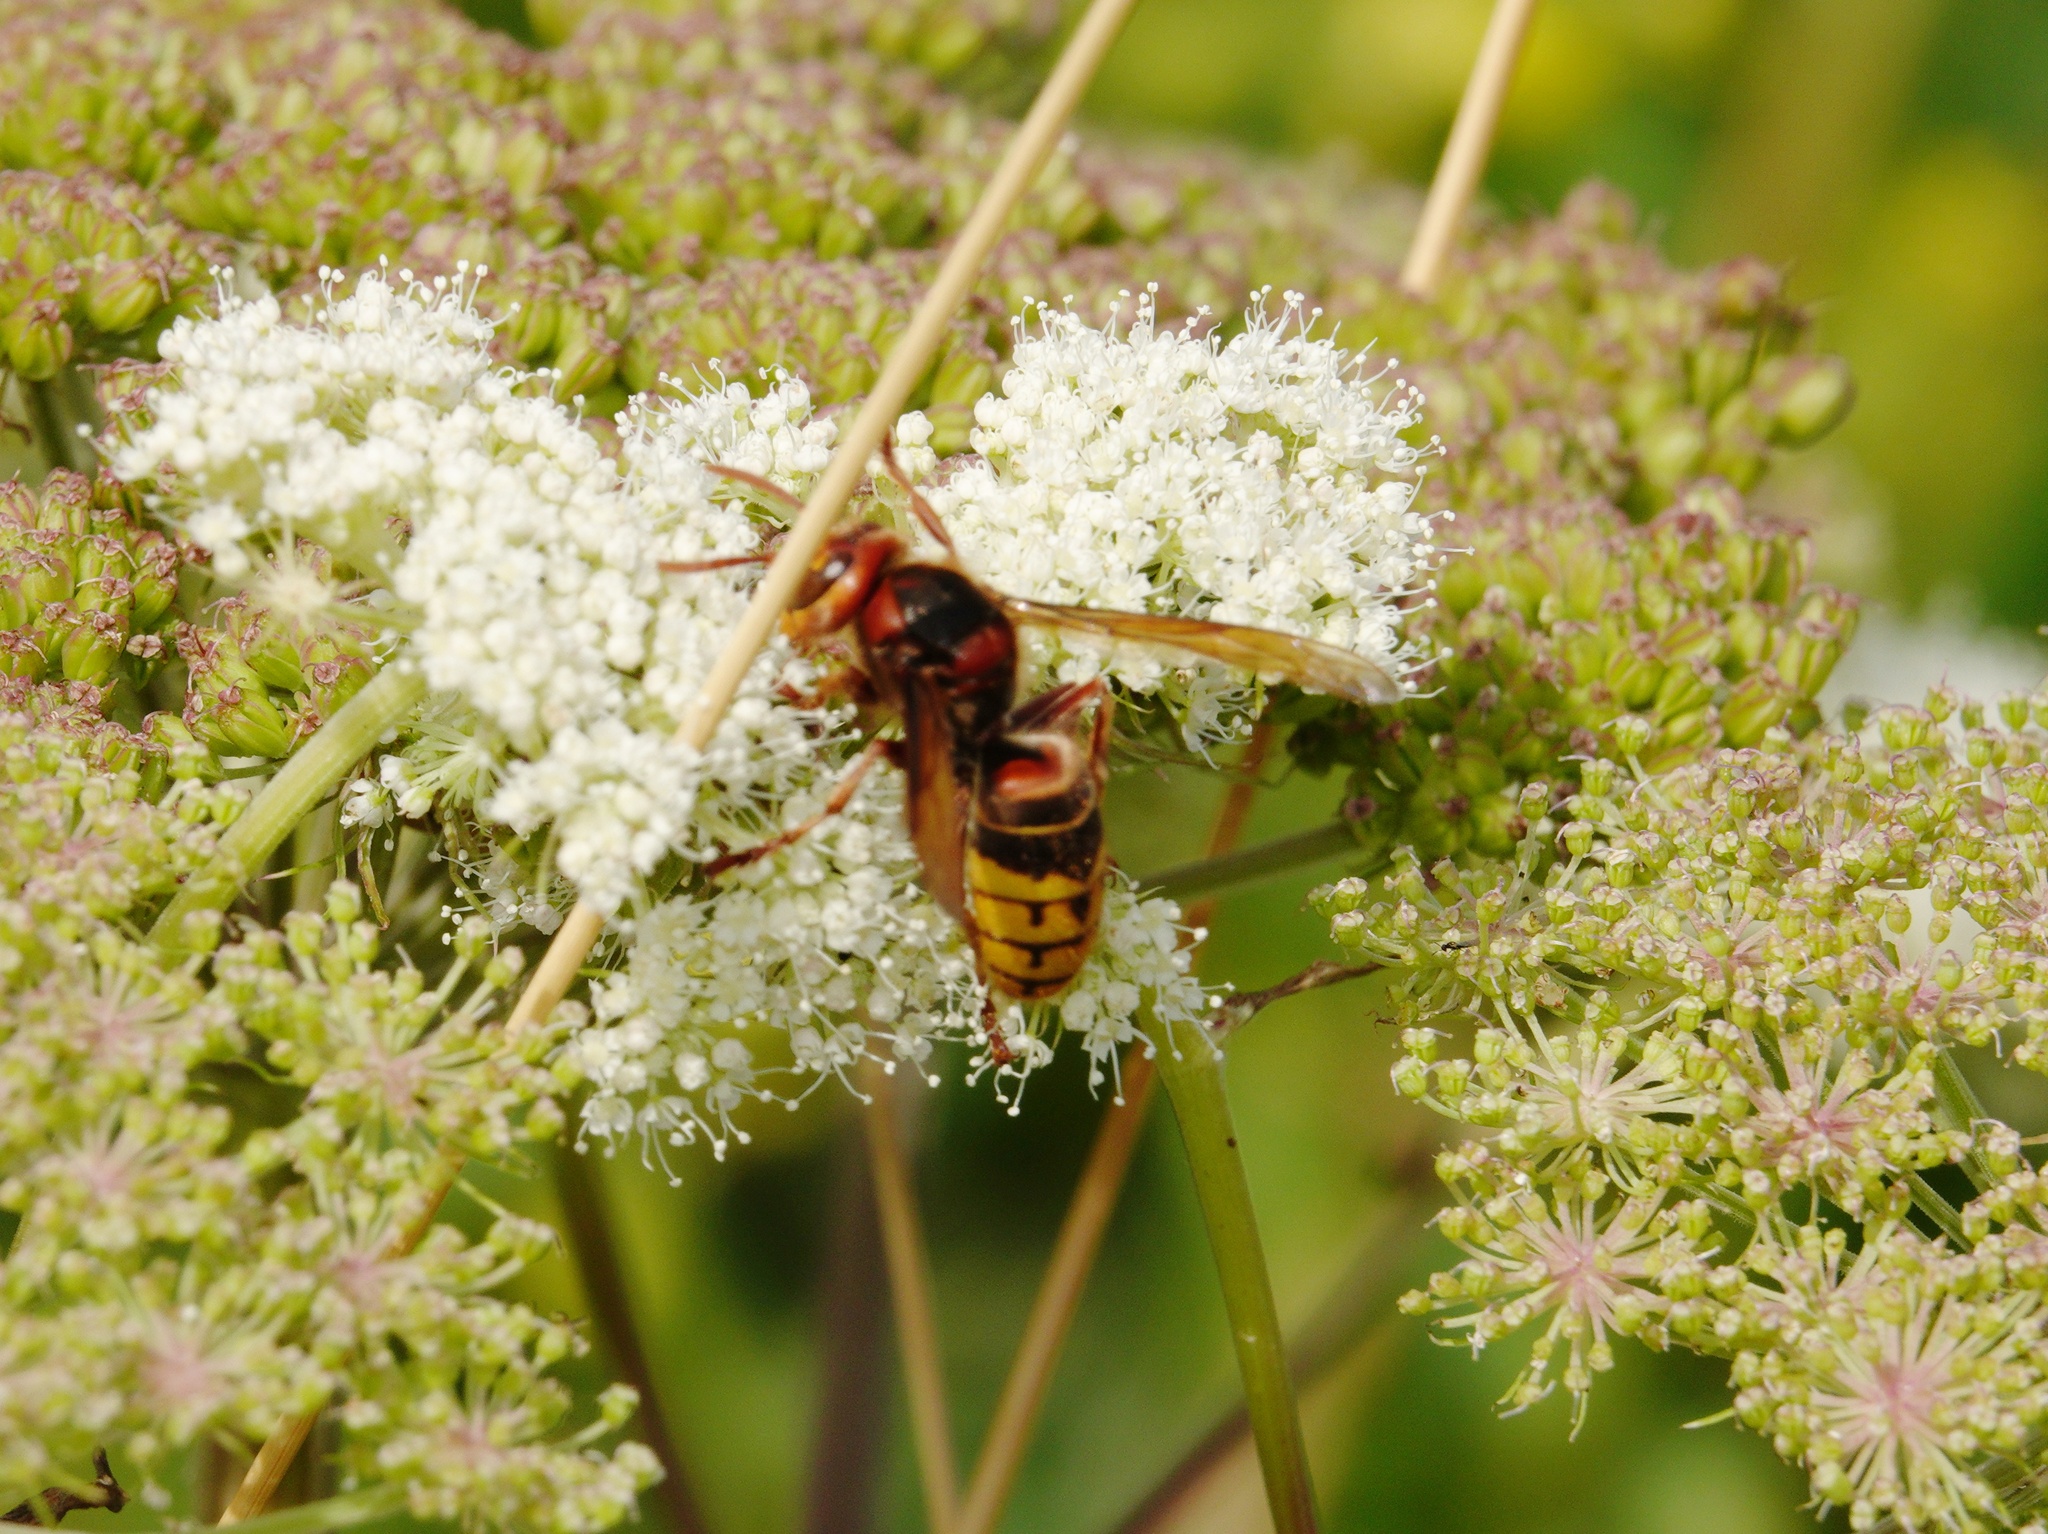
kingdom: Animalia
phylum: Arthropoda
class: Insecta
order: Hymenoptera
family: Vespidae
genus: Vespa
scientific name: Vespa crabro
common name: Hornet
